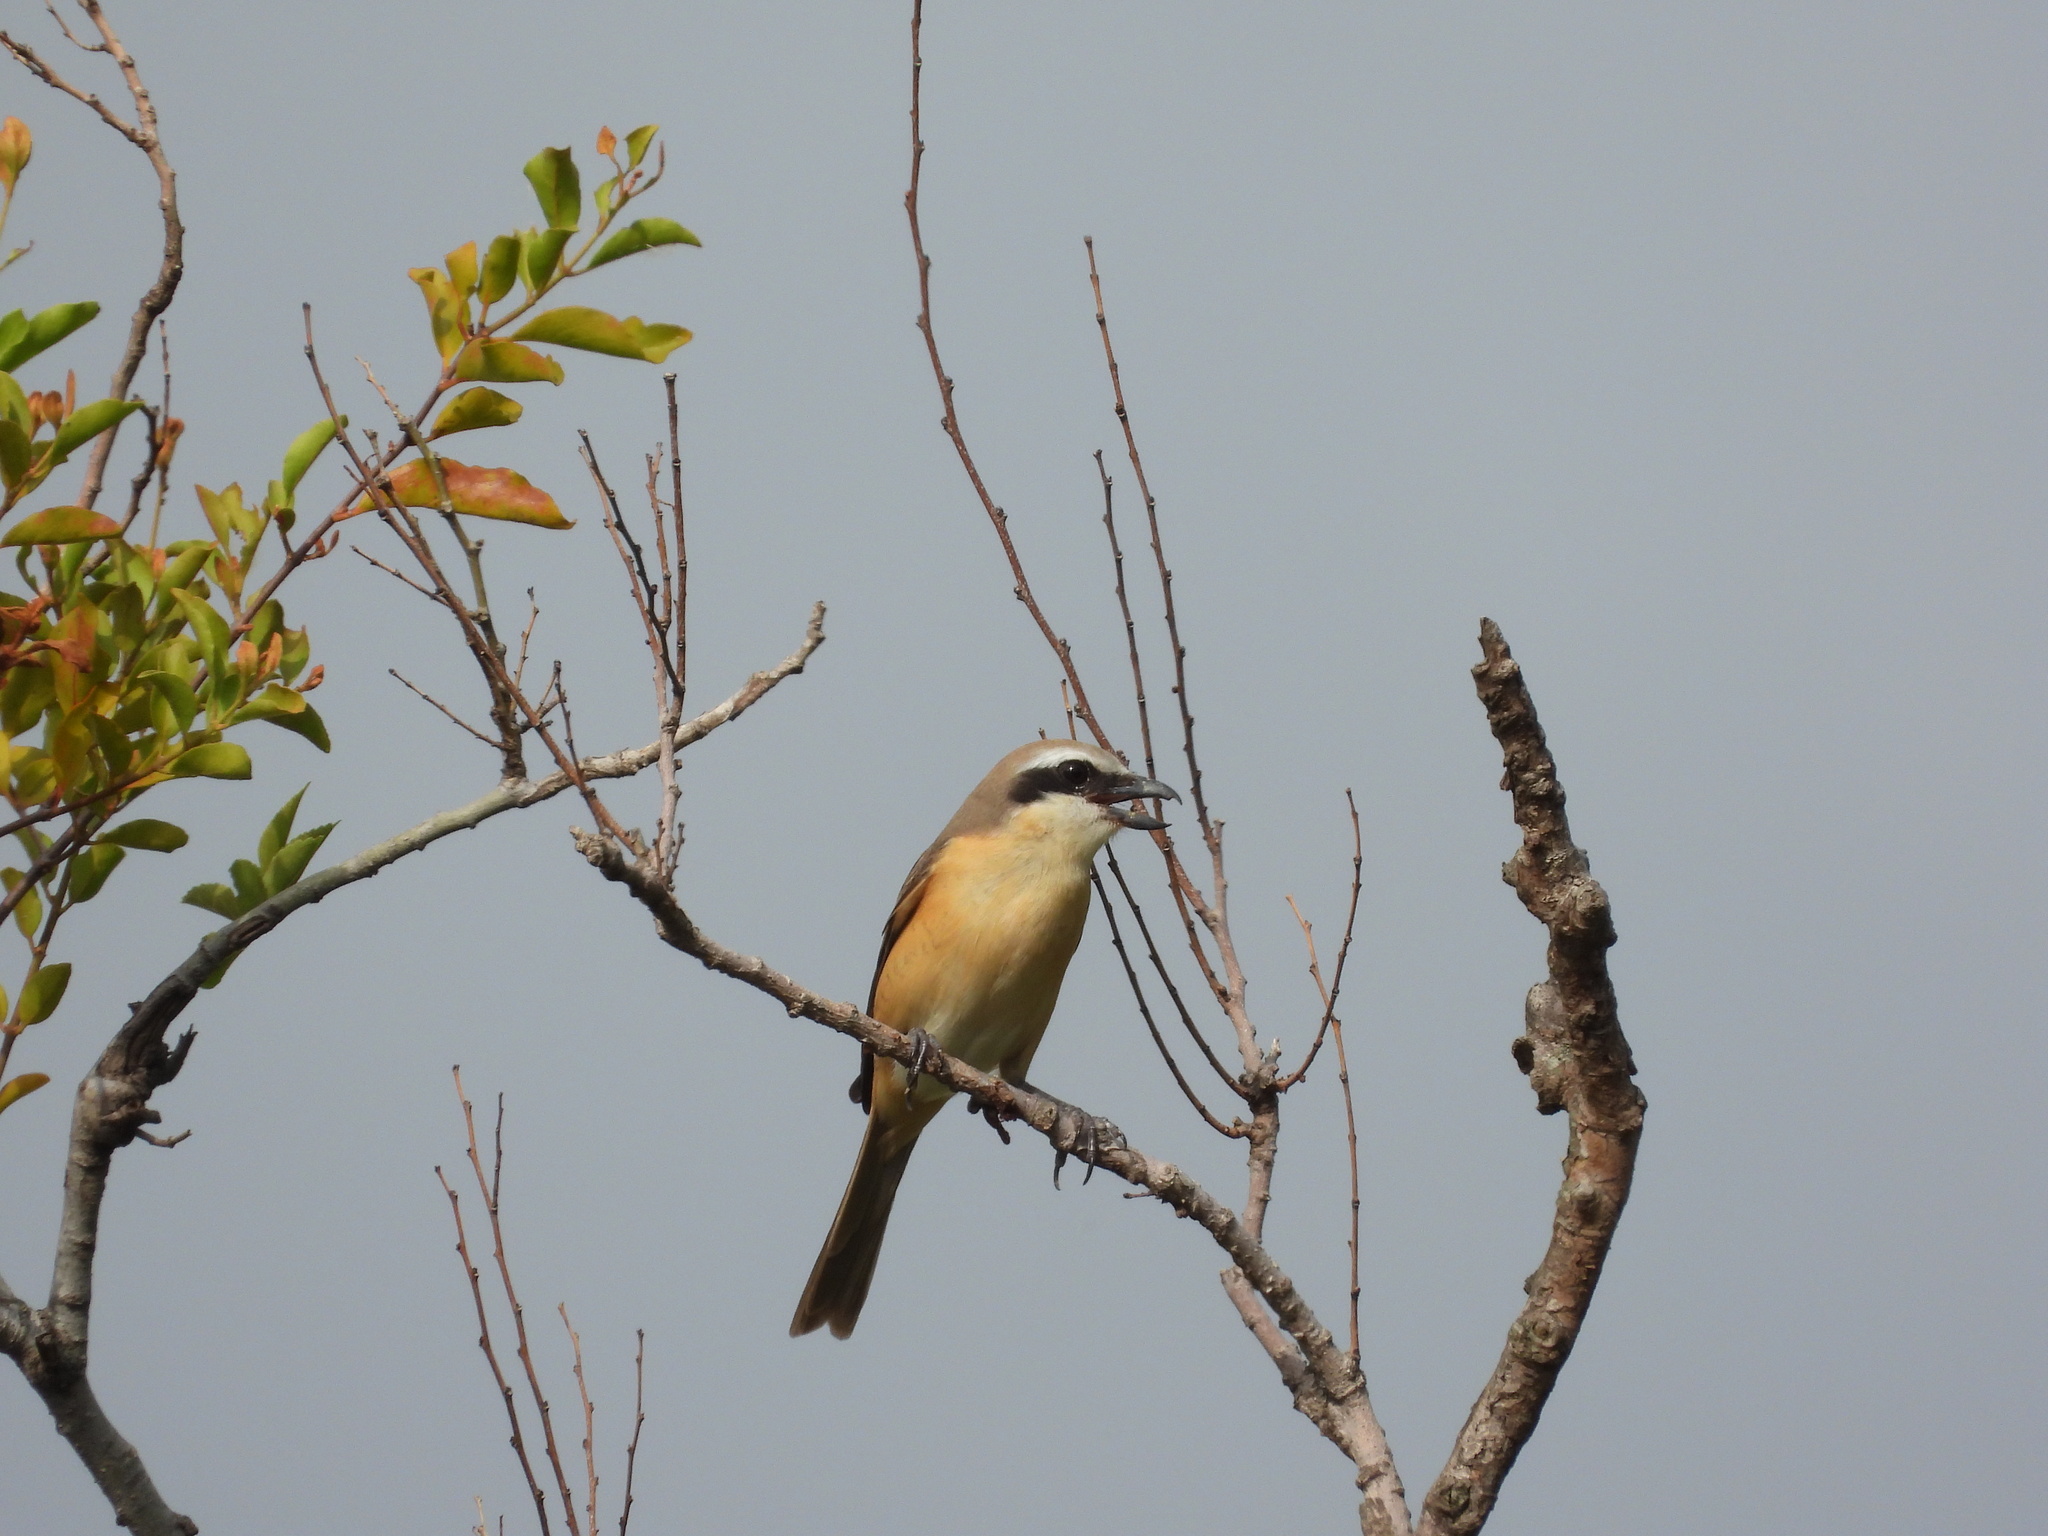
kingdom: Animalia
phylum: Chordata
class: Aves
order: Passeriformes
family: Laniidae
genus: Lanius
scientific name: Lanius cristatus
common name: Brown shrike
